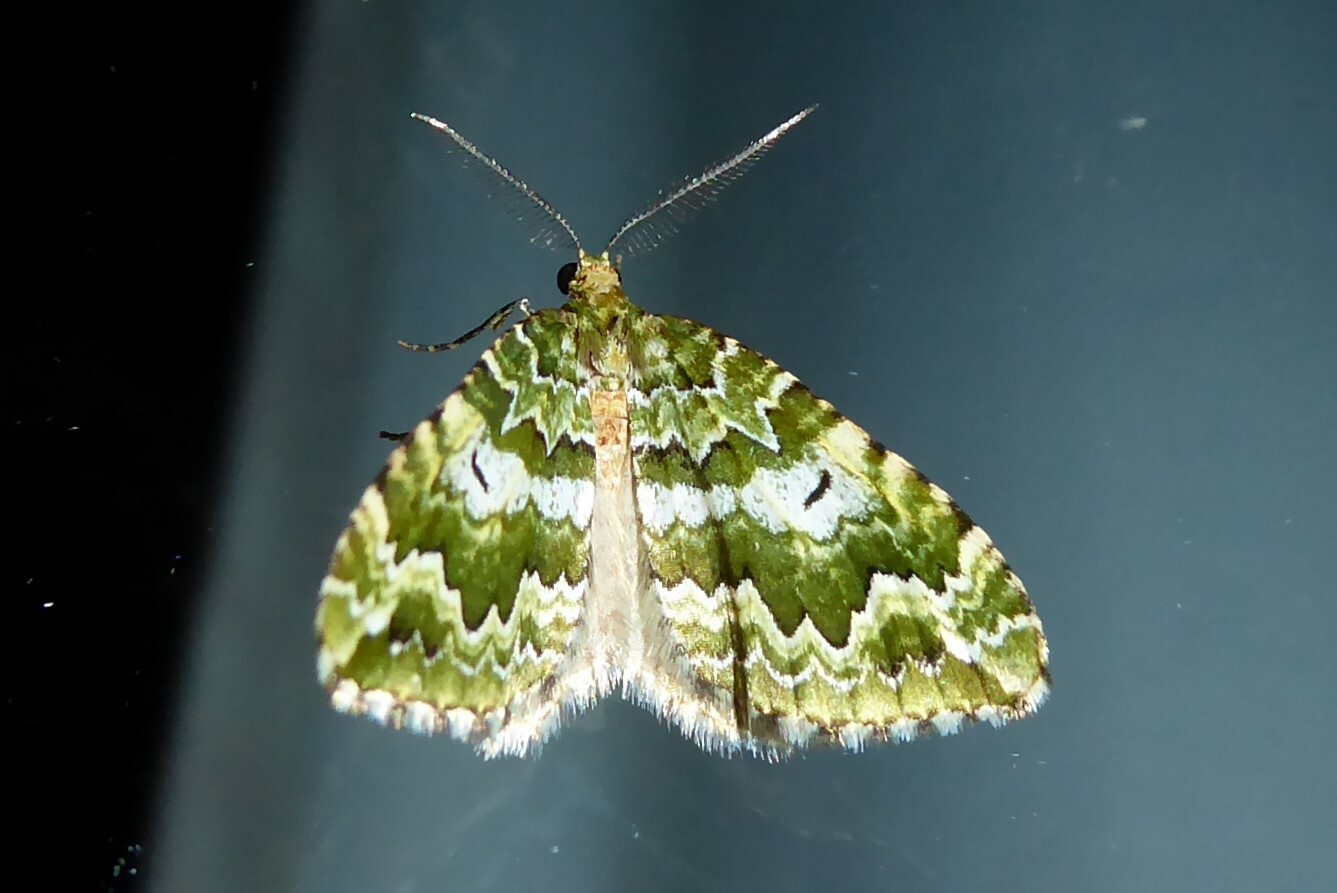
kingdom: Animalia
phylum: Arthropoda
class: Insecta
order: Lepidoptera
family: Geometridae
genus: Asaphodes
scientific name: Asaphodes beata
